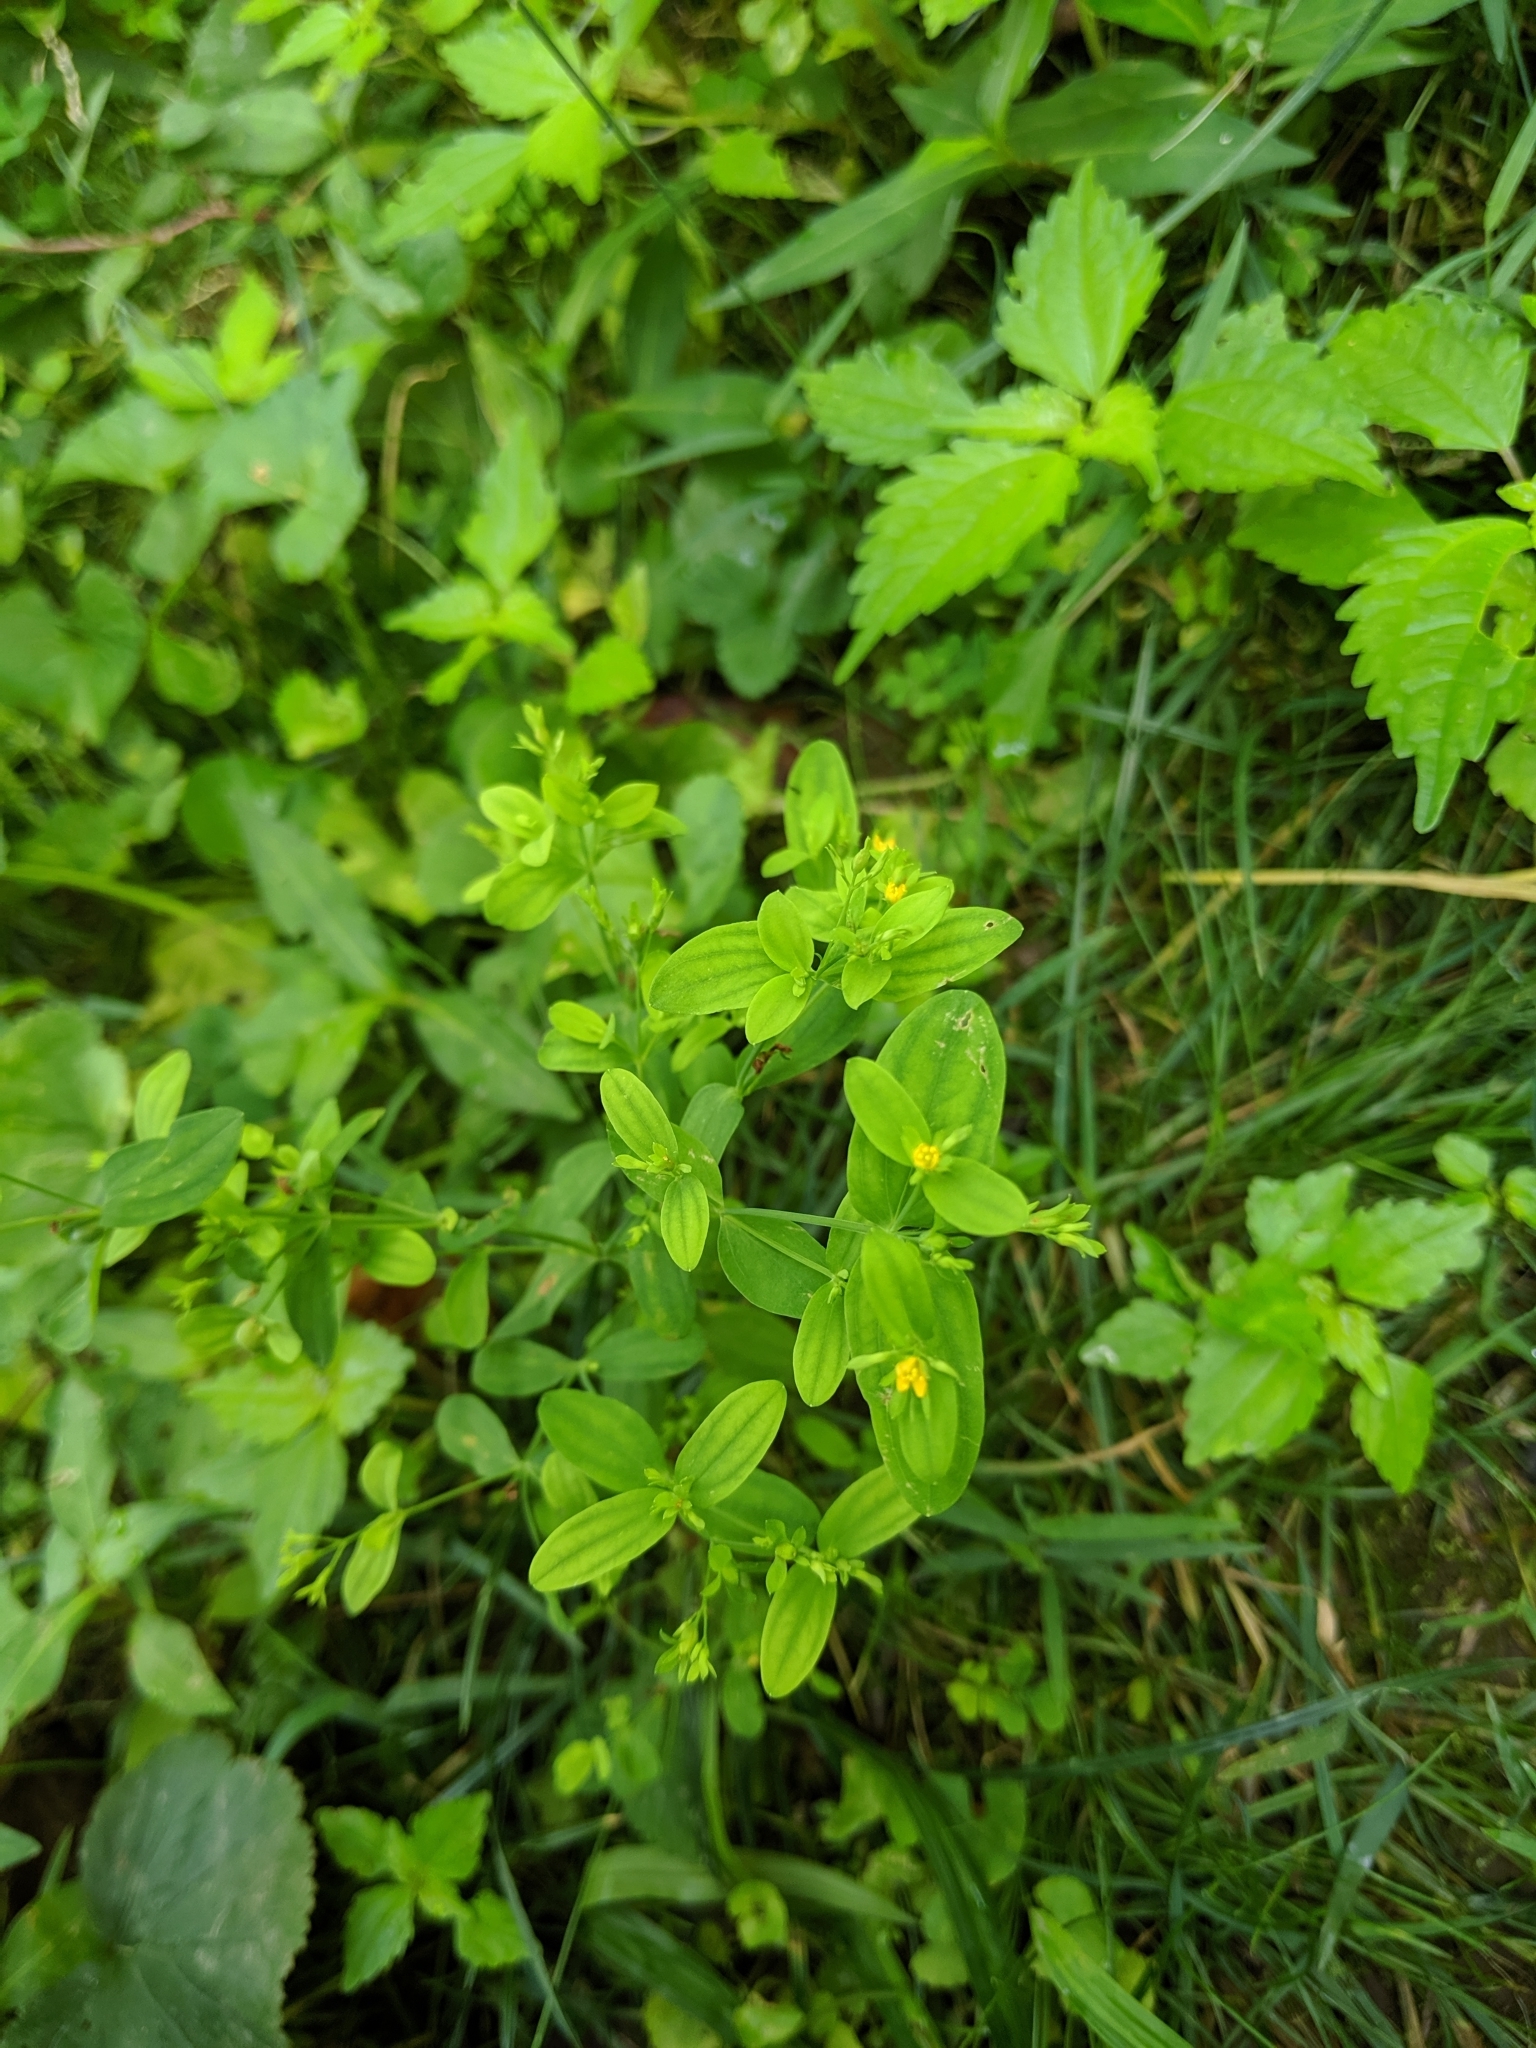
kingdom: Plantae
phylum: Tracheophyta
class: Magnoliopsida
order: Malpighiales
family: Hypericaceae
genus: Hypericum
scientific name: Hypericum mutilum
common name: Dwarf st. john's-wort
